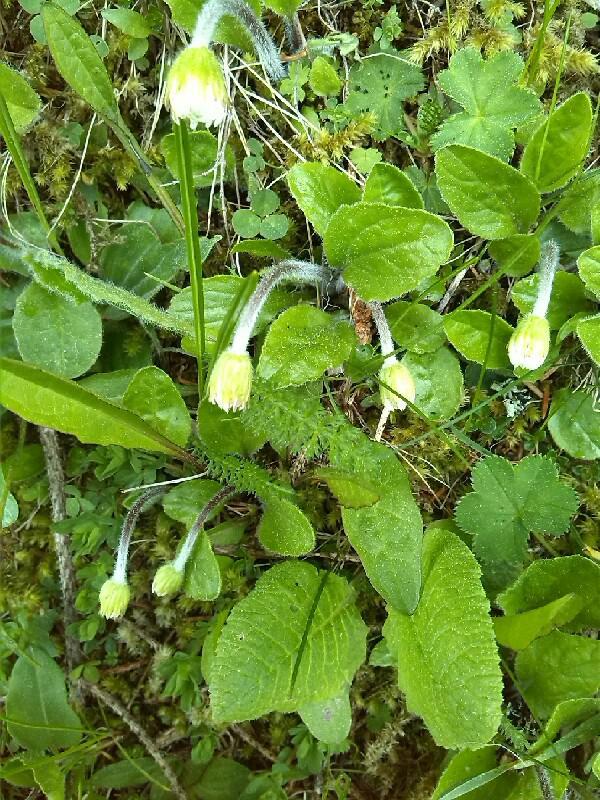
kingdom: Plantae
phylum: Tracheophyta
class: Magnoliopsida
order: Asterales
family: Asteraceae
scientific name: Asteraceae
